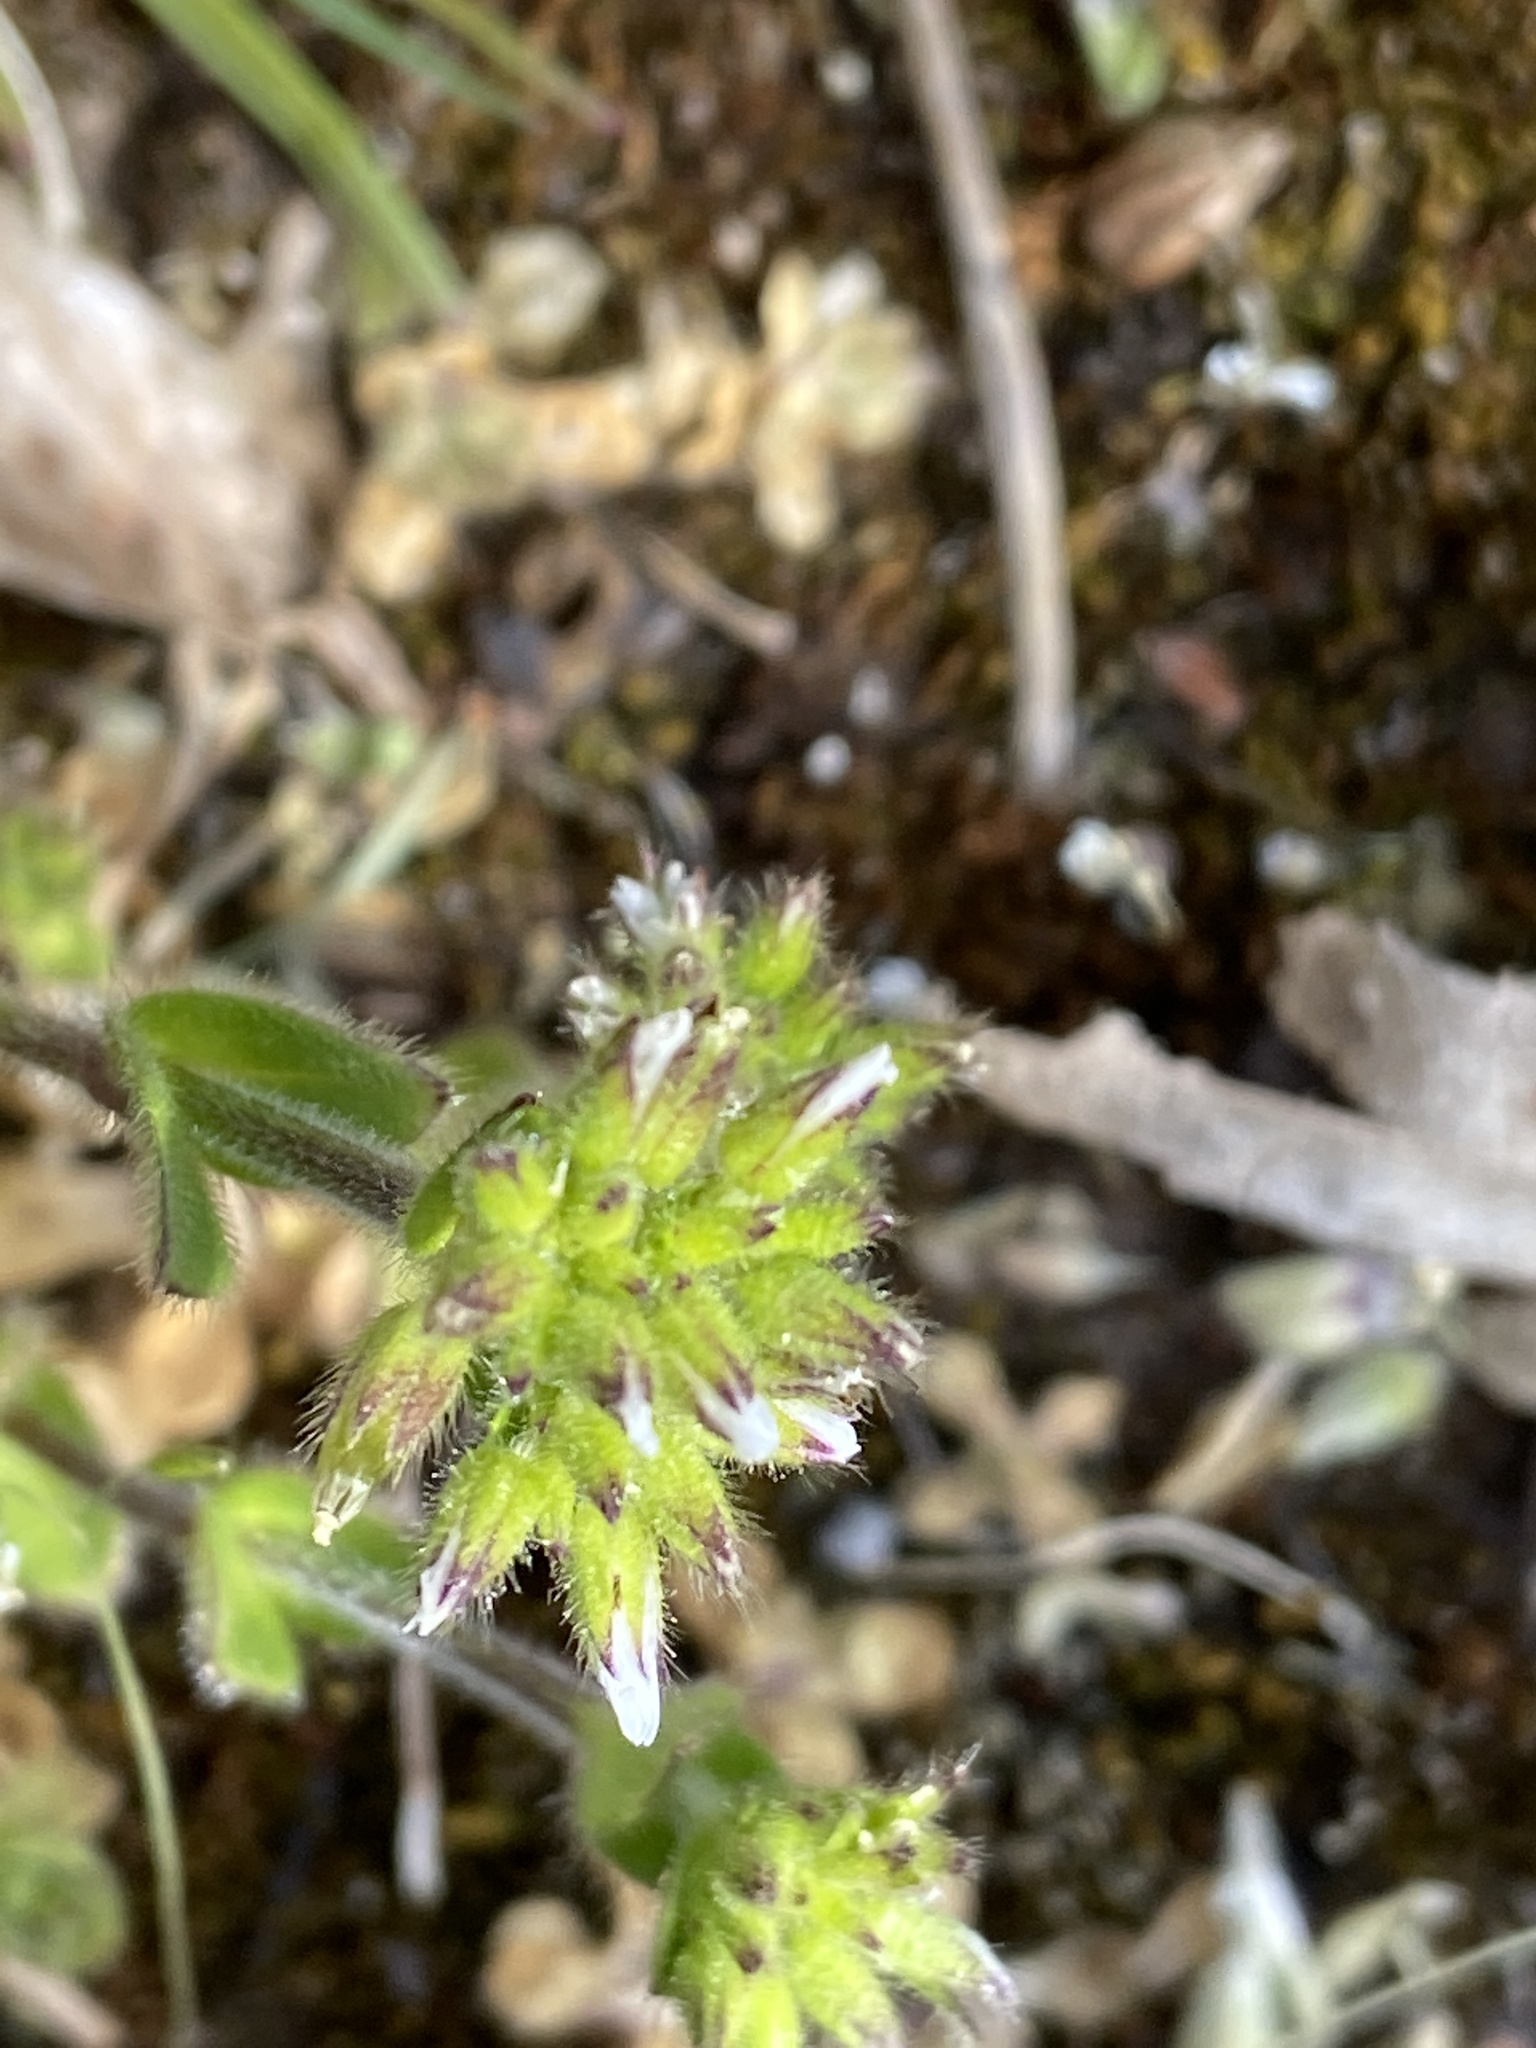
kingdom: Plantae
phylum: Tracheophyta
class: Magnoliopsida
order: Caryophyllales
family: Caryophyllaceae
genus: Cerastium
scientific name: Cerastium glomeratum
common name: Sticky chickweed
